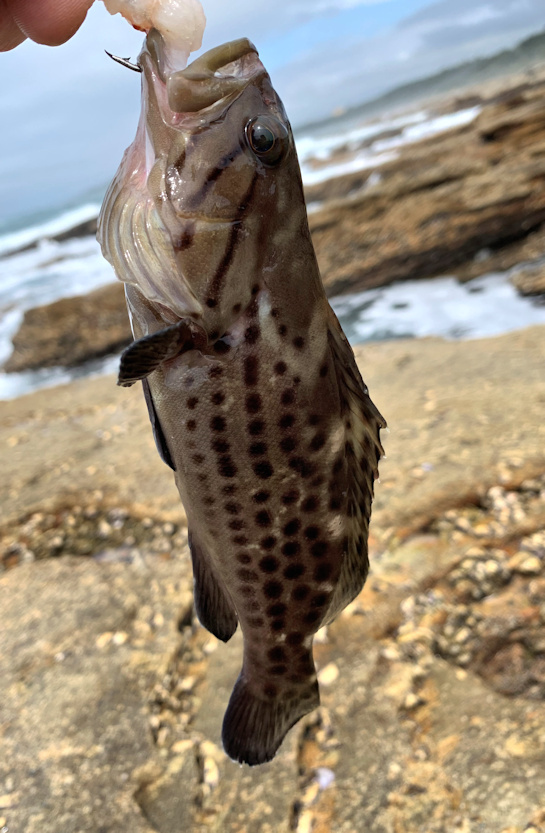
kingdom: Animalia
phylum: Chordata
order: Perciformes
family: Serranidae
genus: Epinephelus
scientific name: Epinephelus andersoni
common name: Catface rockcod
